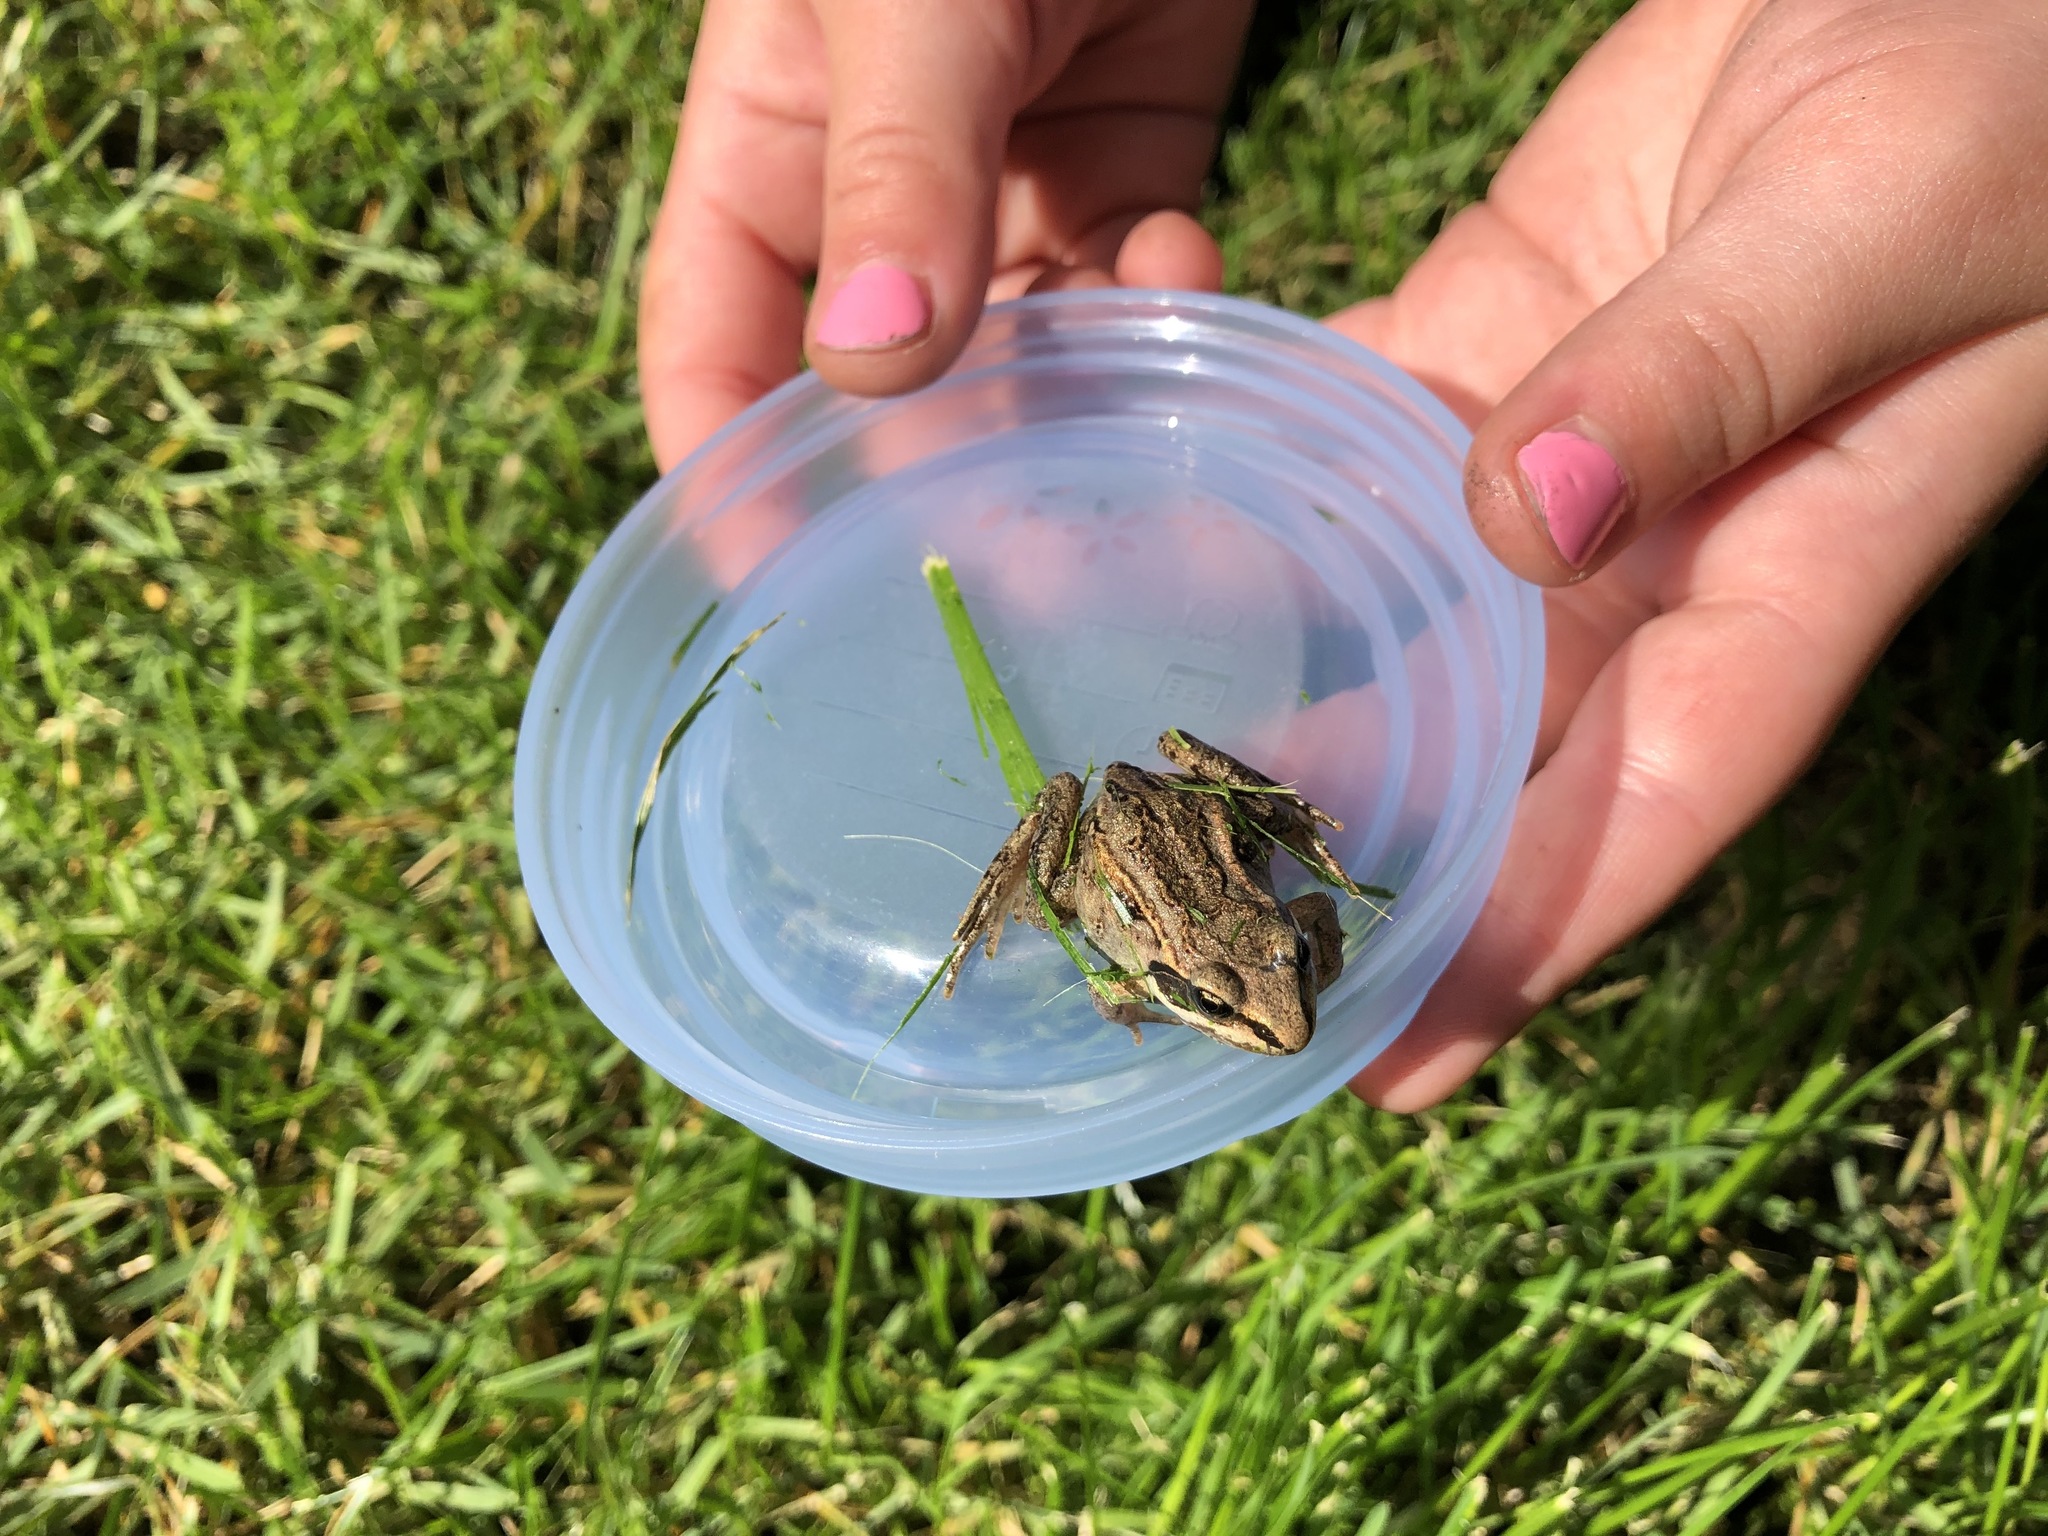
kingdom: Animalia
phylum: Chordata
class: Amphibia
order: Anura
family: Ranidae
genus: Lithobates
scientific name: Lithobates sylvaticus
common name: Wood frog
